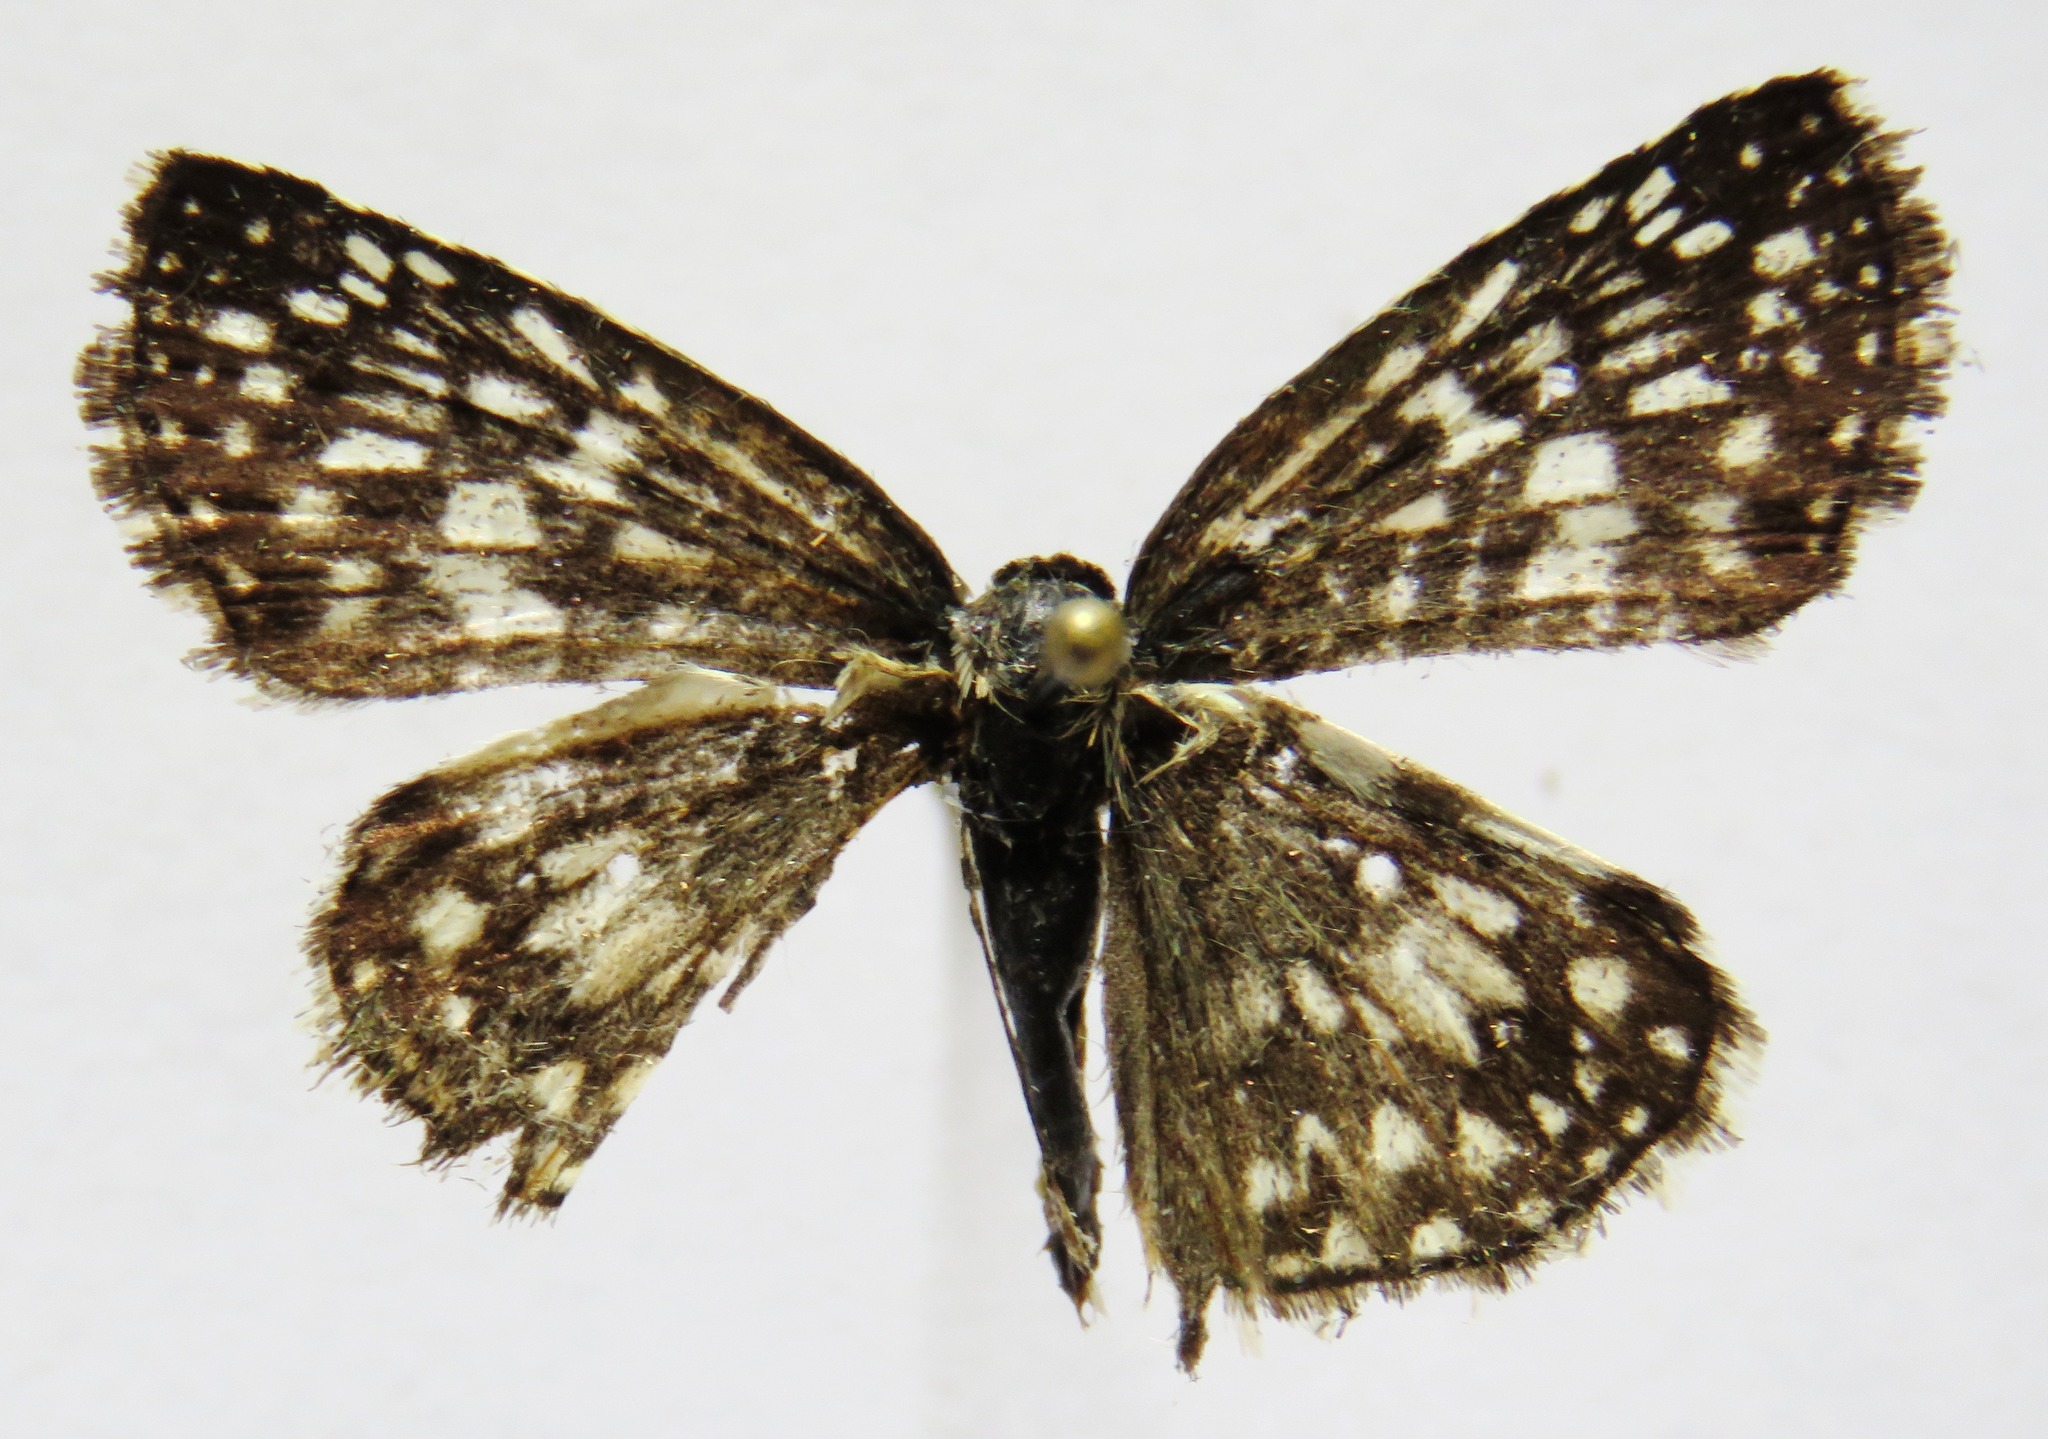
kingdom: Animalia
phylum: Arthropoda
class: Insecta
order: Lepidoptera
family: Hesperiidae
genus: Pyrgus
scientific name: Pyrgus oileus
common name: Tropical checkered-skipper
